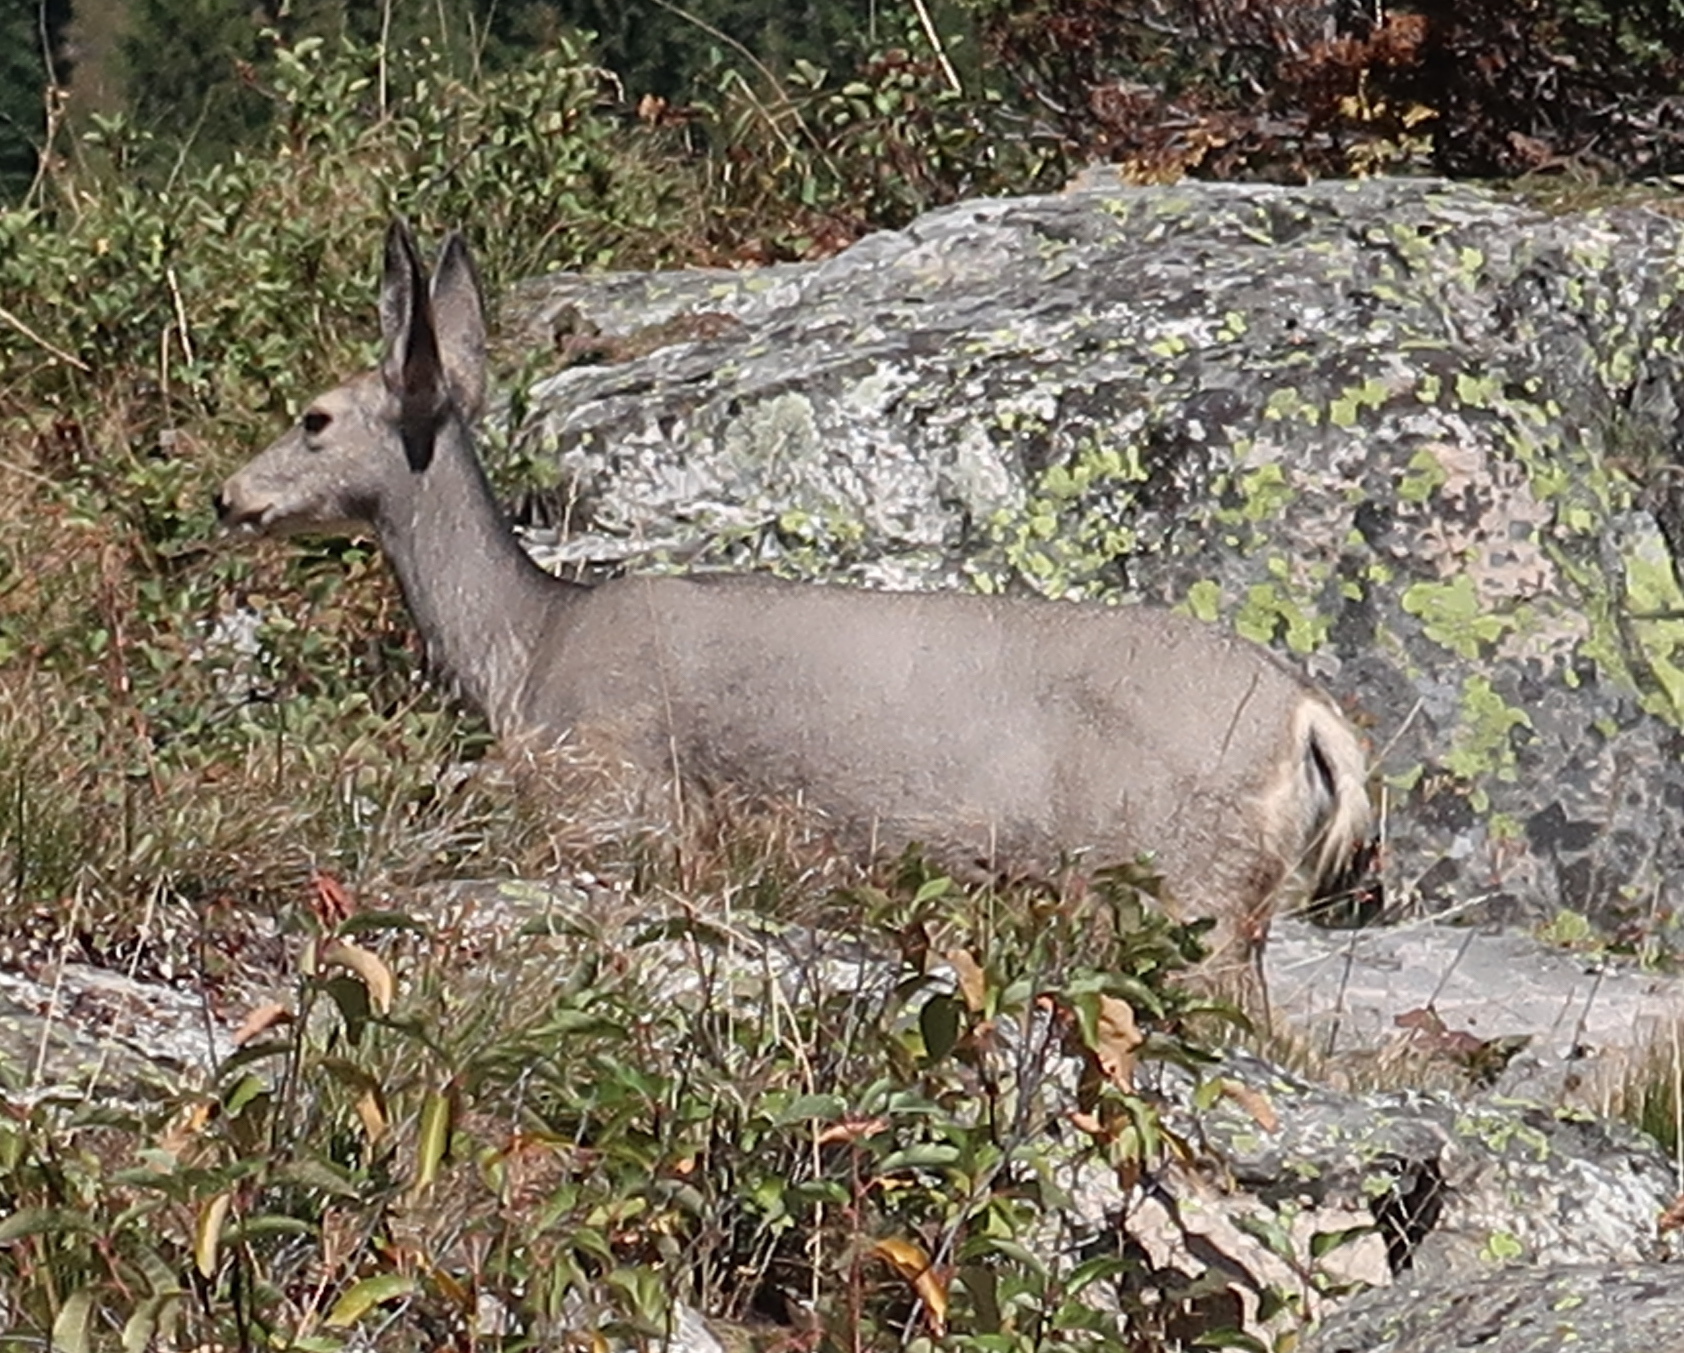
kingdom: Animalia
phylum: Chordata
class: Mammalia
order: Artiodactyla
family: Cervidae
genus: Odocoileus
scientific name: Odocoileus hemionus
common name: Mule deer
